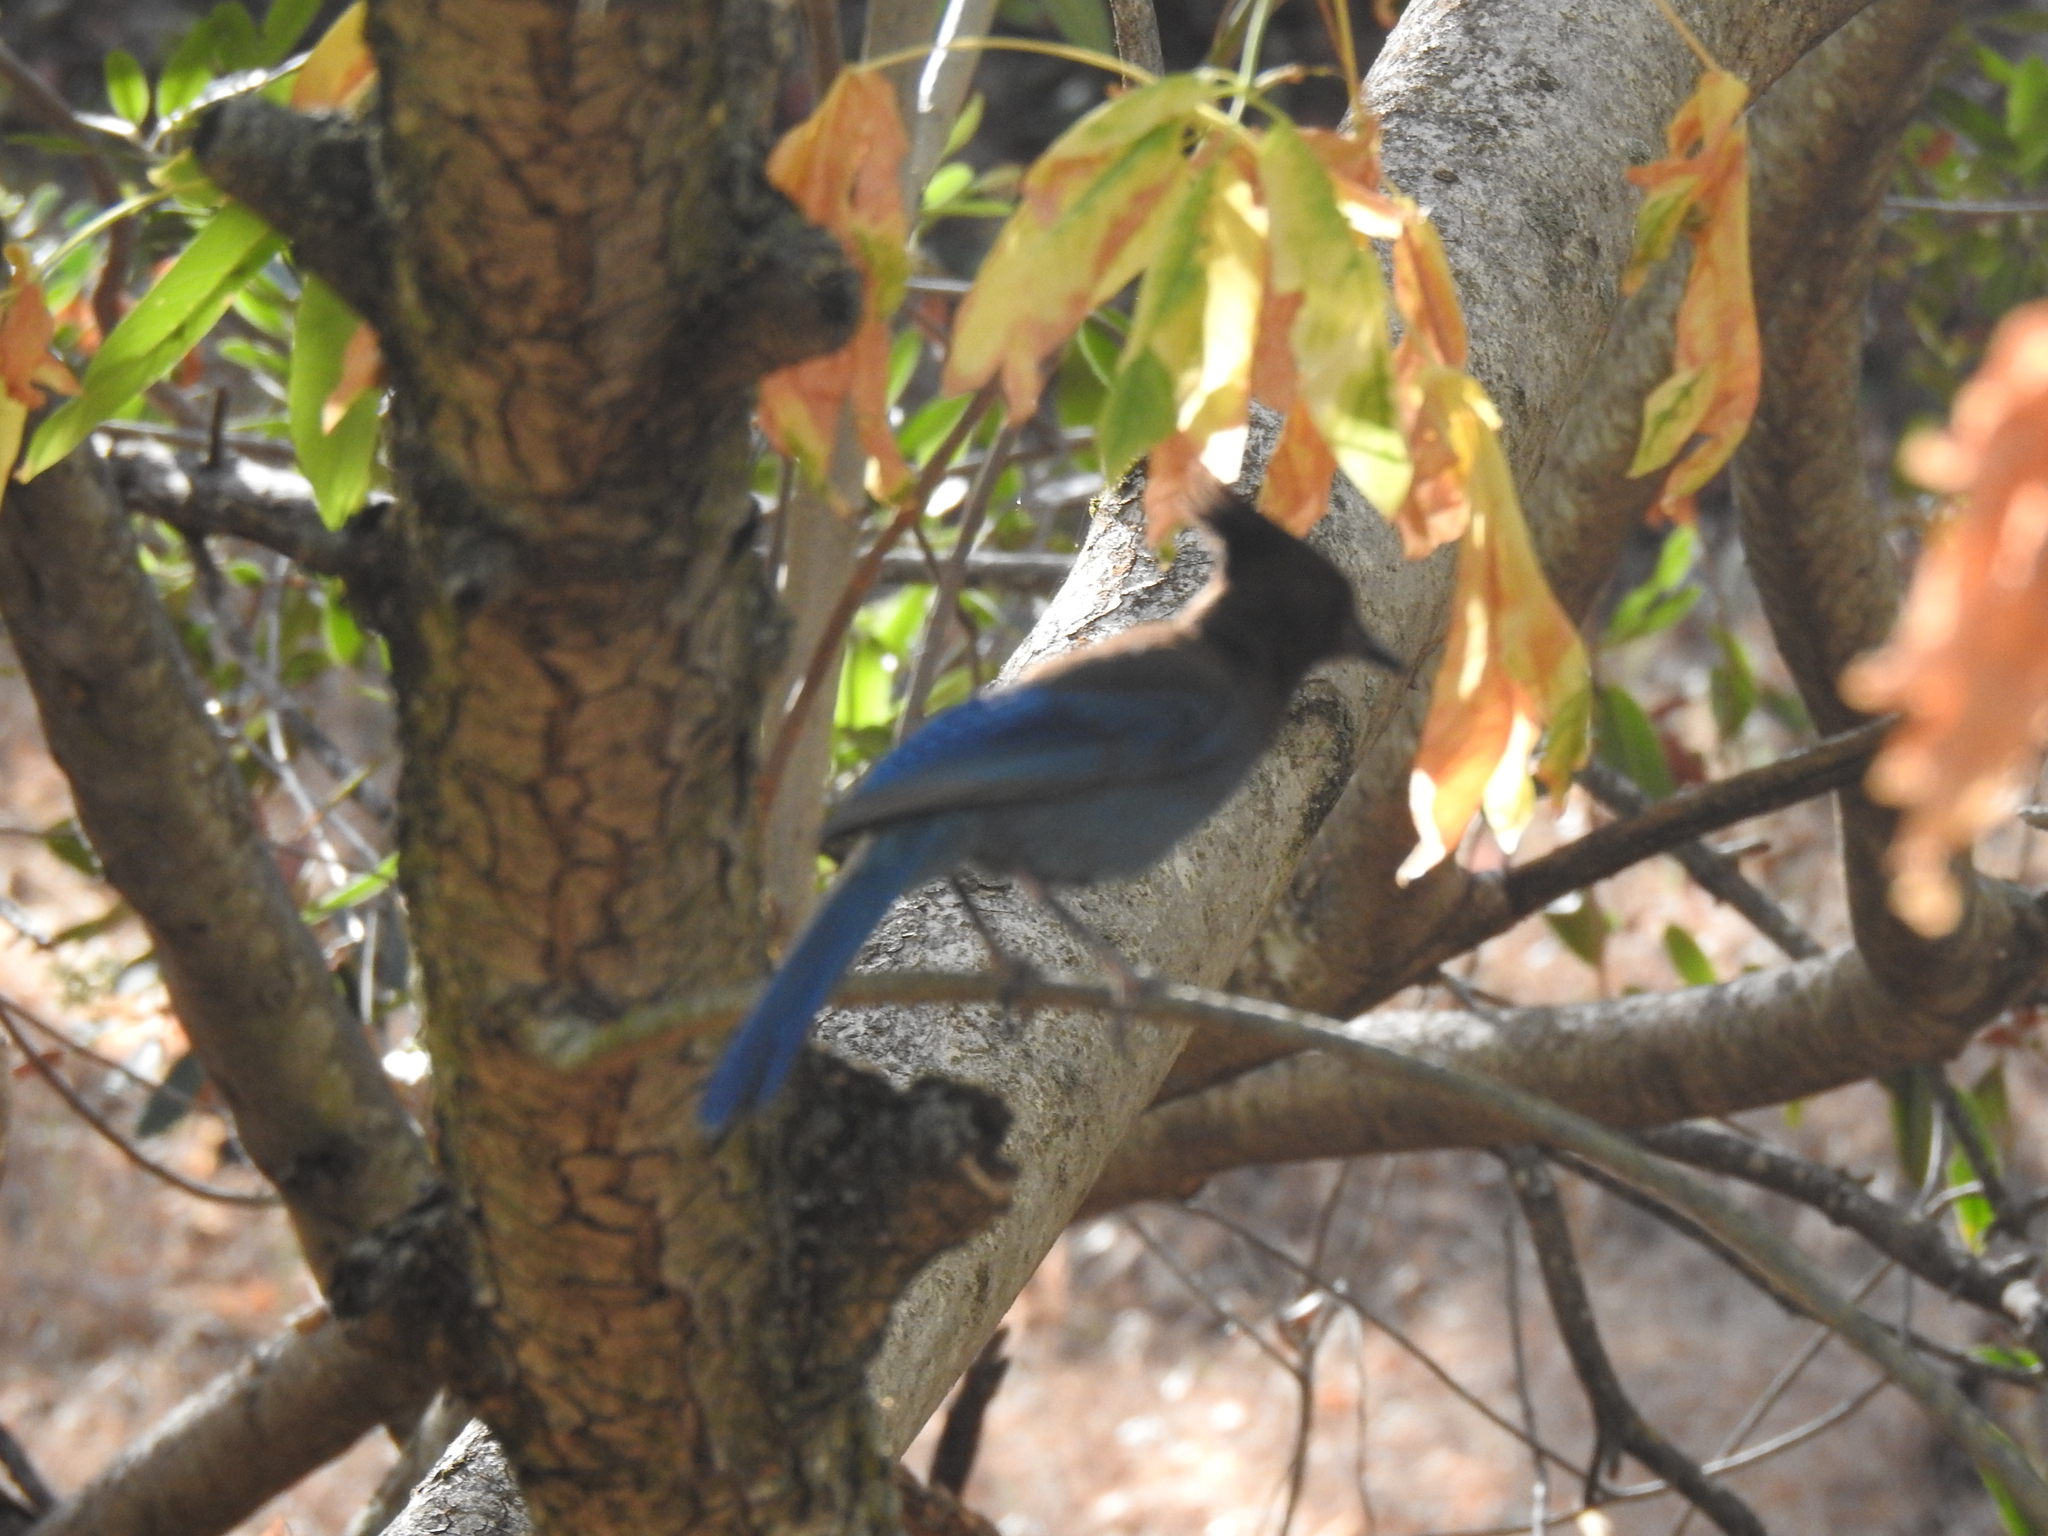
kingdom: Animalia
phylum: Chordata
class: Aves
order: Passeriformes
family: Corvidae
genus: Cyanocitta
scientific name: Cyanocitta stelleri
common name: Steller's jay
